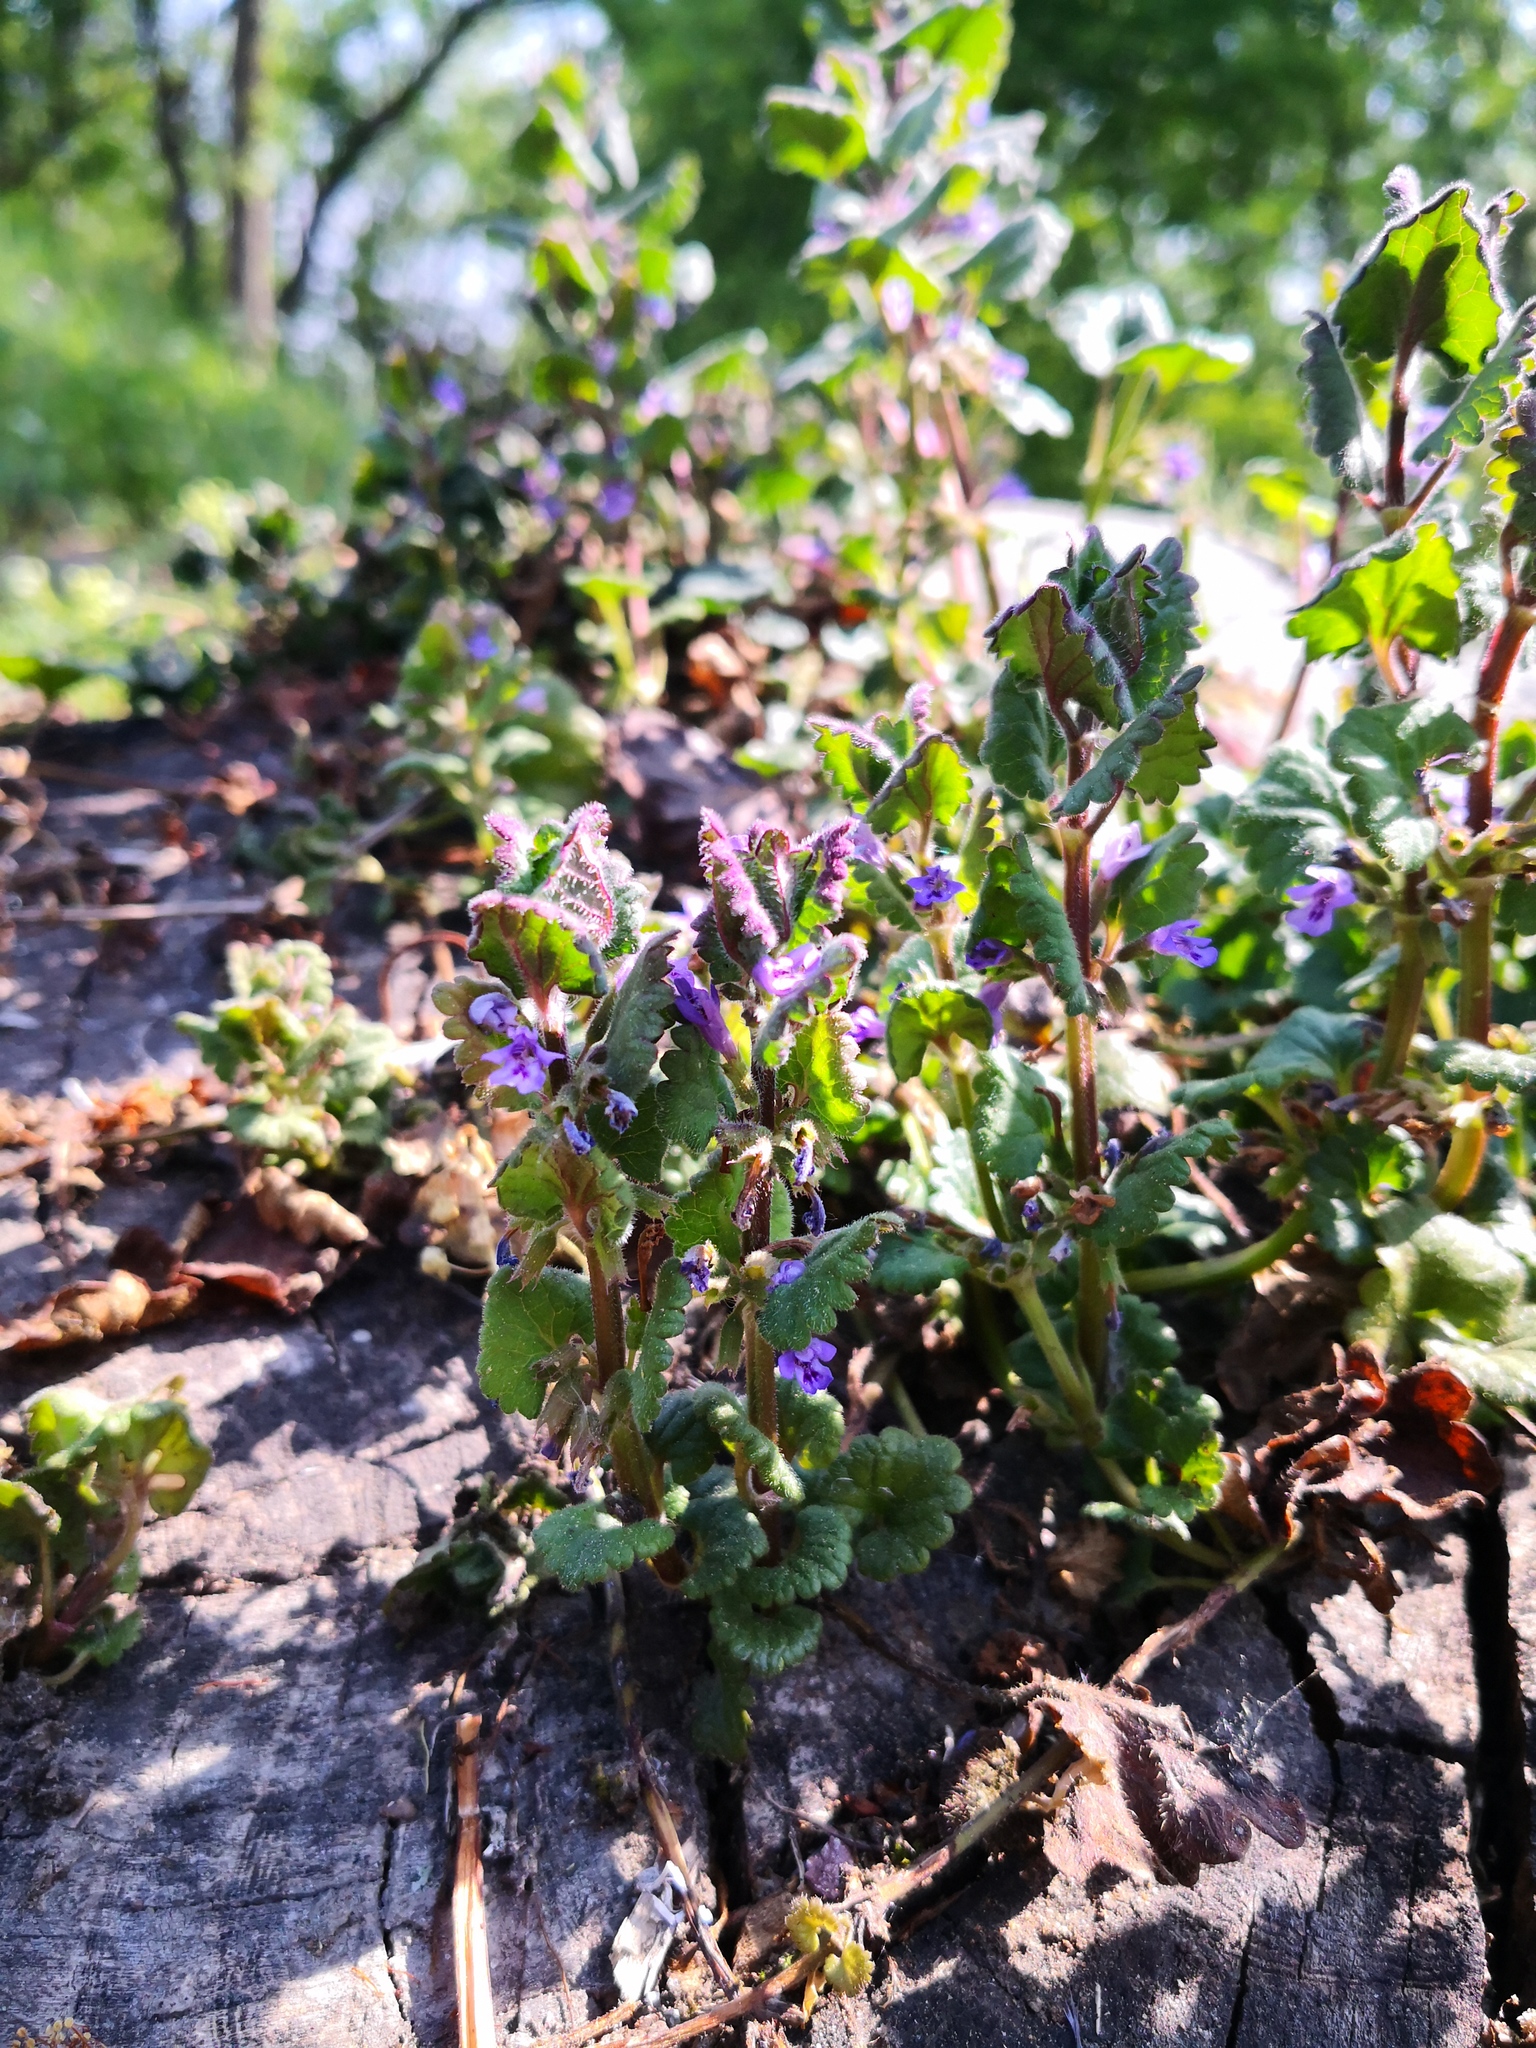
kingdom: Plantae
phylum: Tracheophyta
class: Magnoliopsida
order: Lamiales
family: Lamiaceae
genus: Glechoma
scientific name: Glechoma hederacea
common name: Ground ivy
